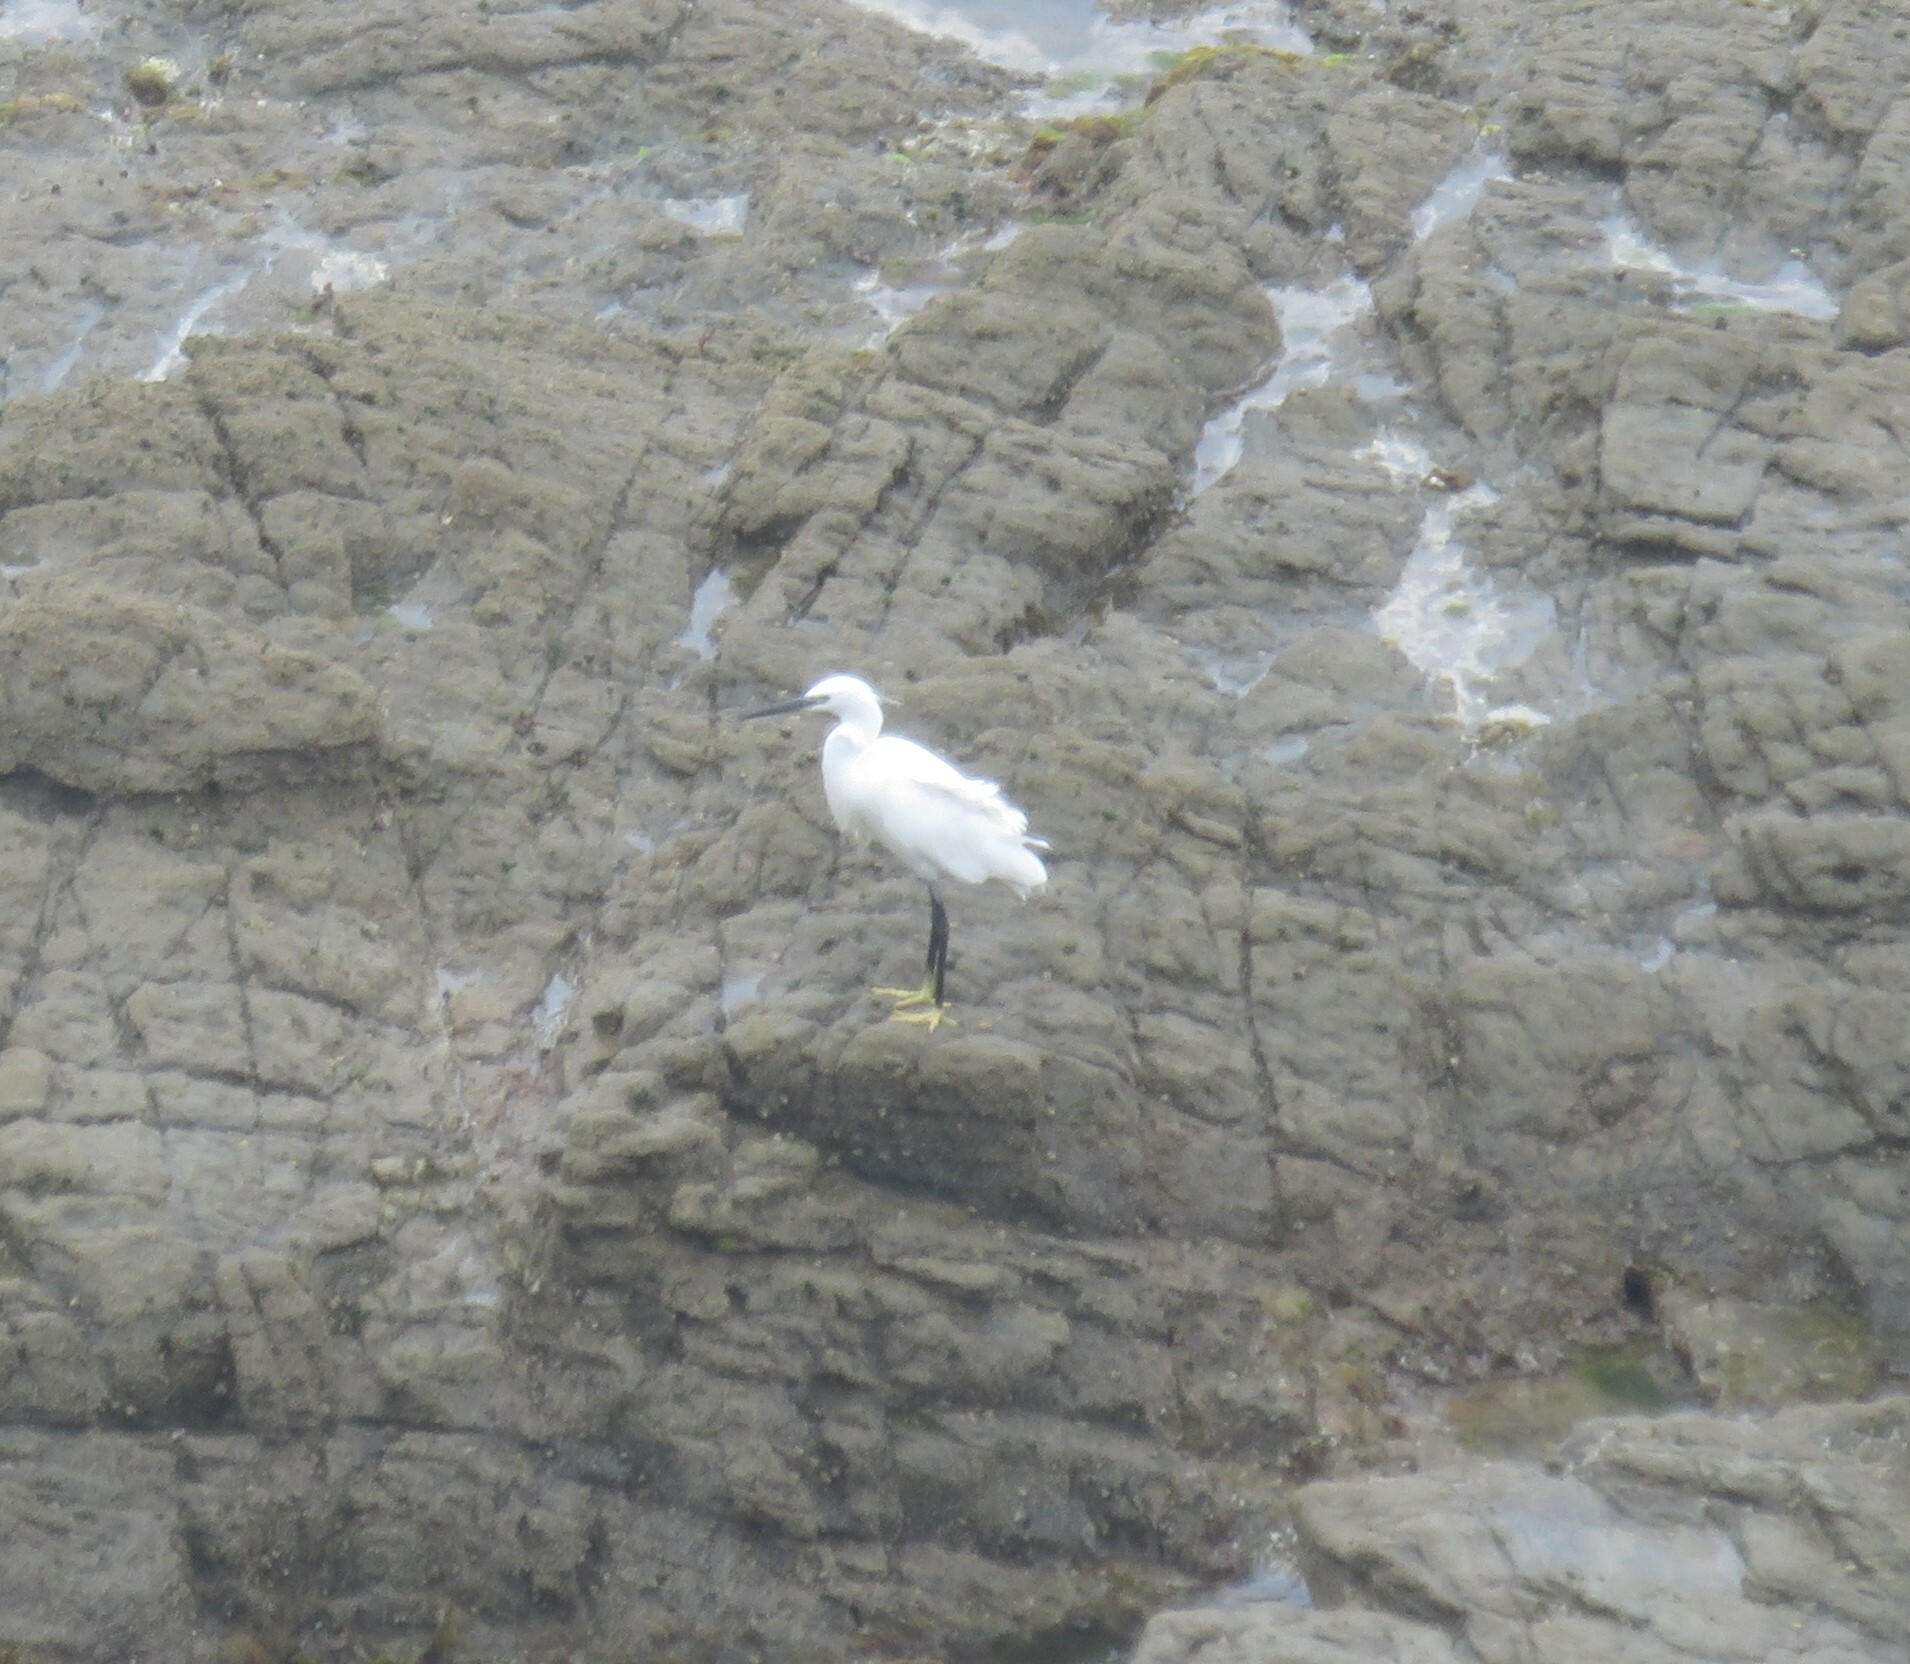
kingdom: Animalia
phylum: Chordata
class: Aves
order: Pelecaniformes
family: Ardeidae
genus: Egretta
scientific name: Egretta garzetta
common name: Little egret
